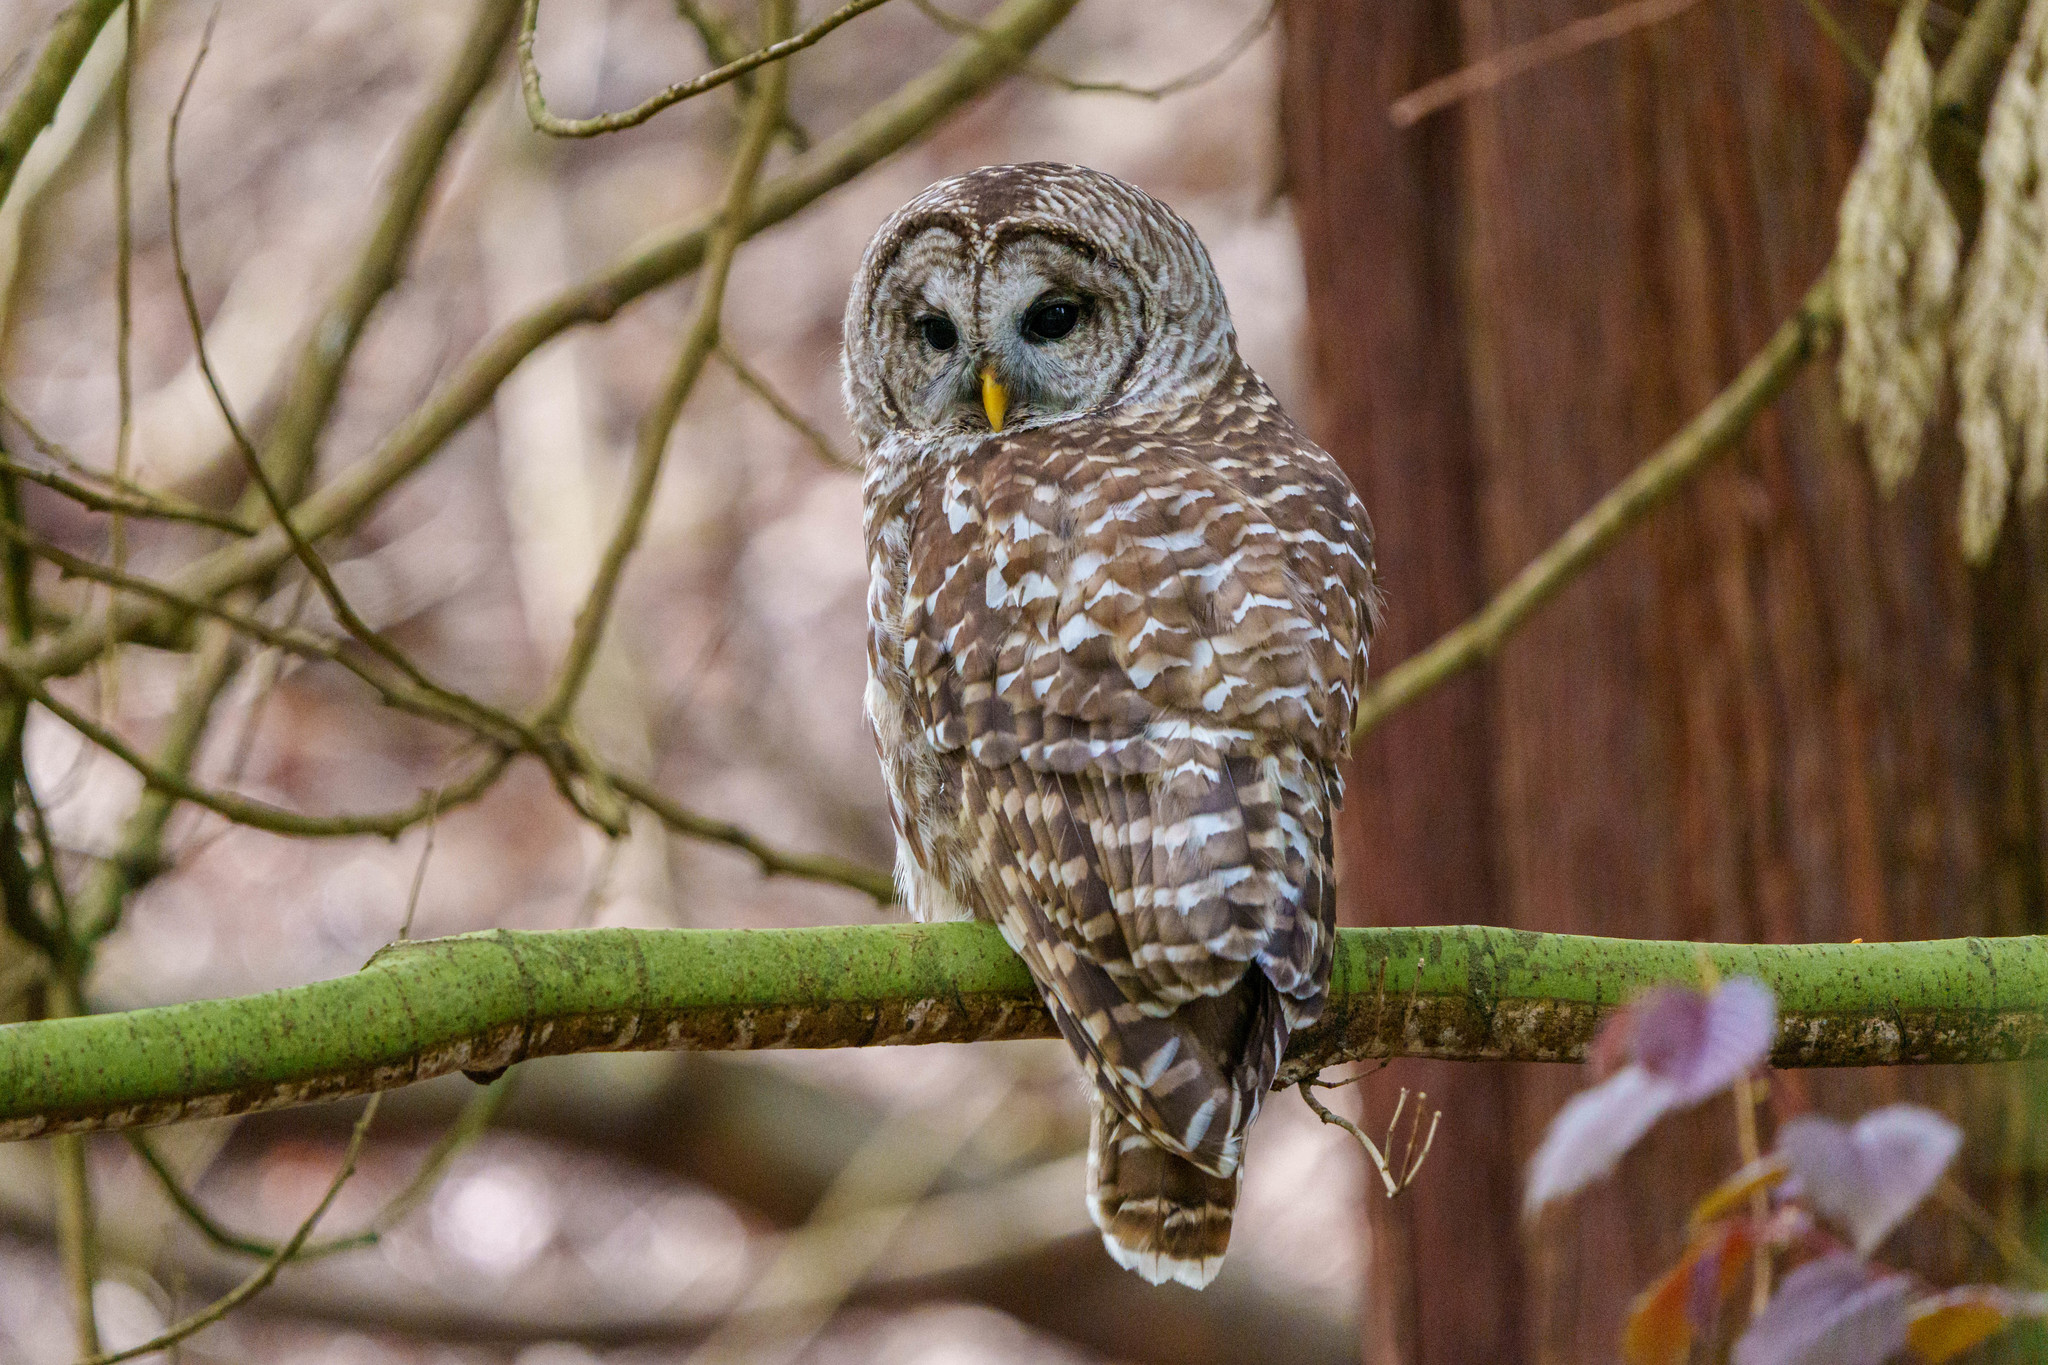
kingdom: Animalia
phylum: Chordata
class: Aves
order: Strigiformes
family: Strigidae
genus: Strix
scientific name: Strix varia
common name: Barred owl
